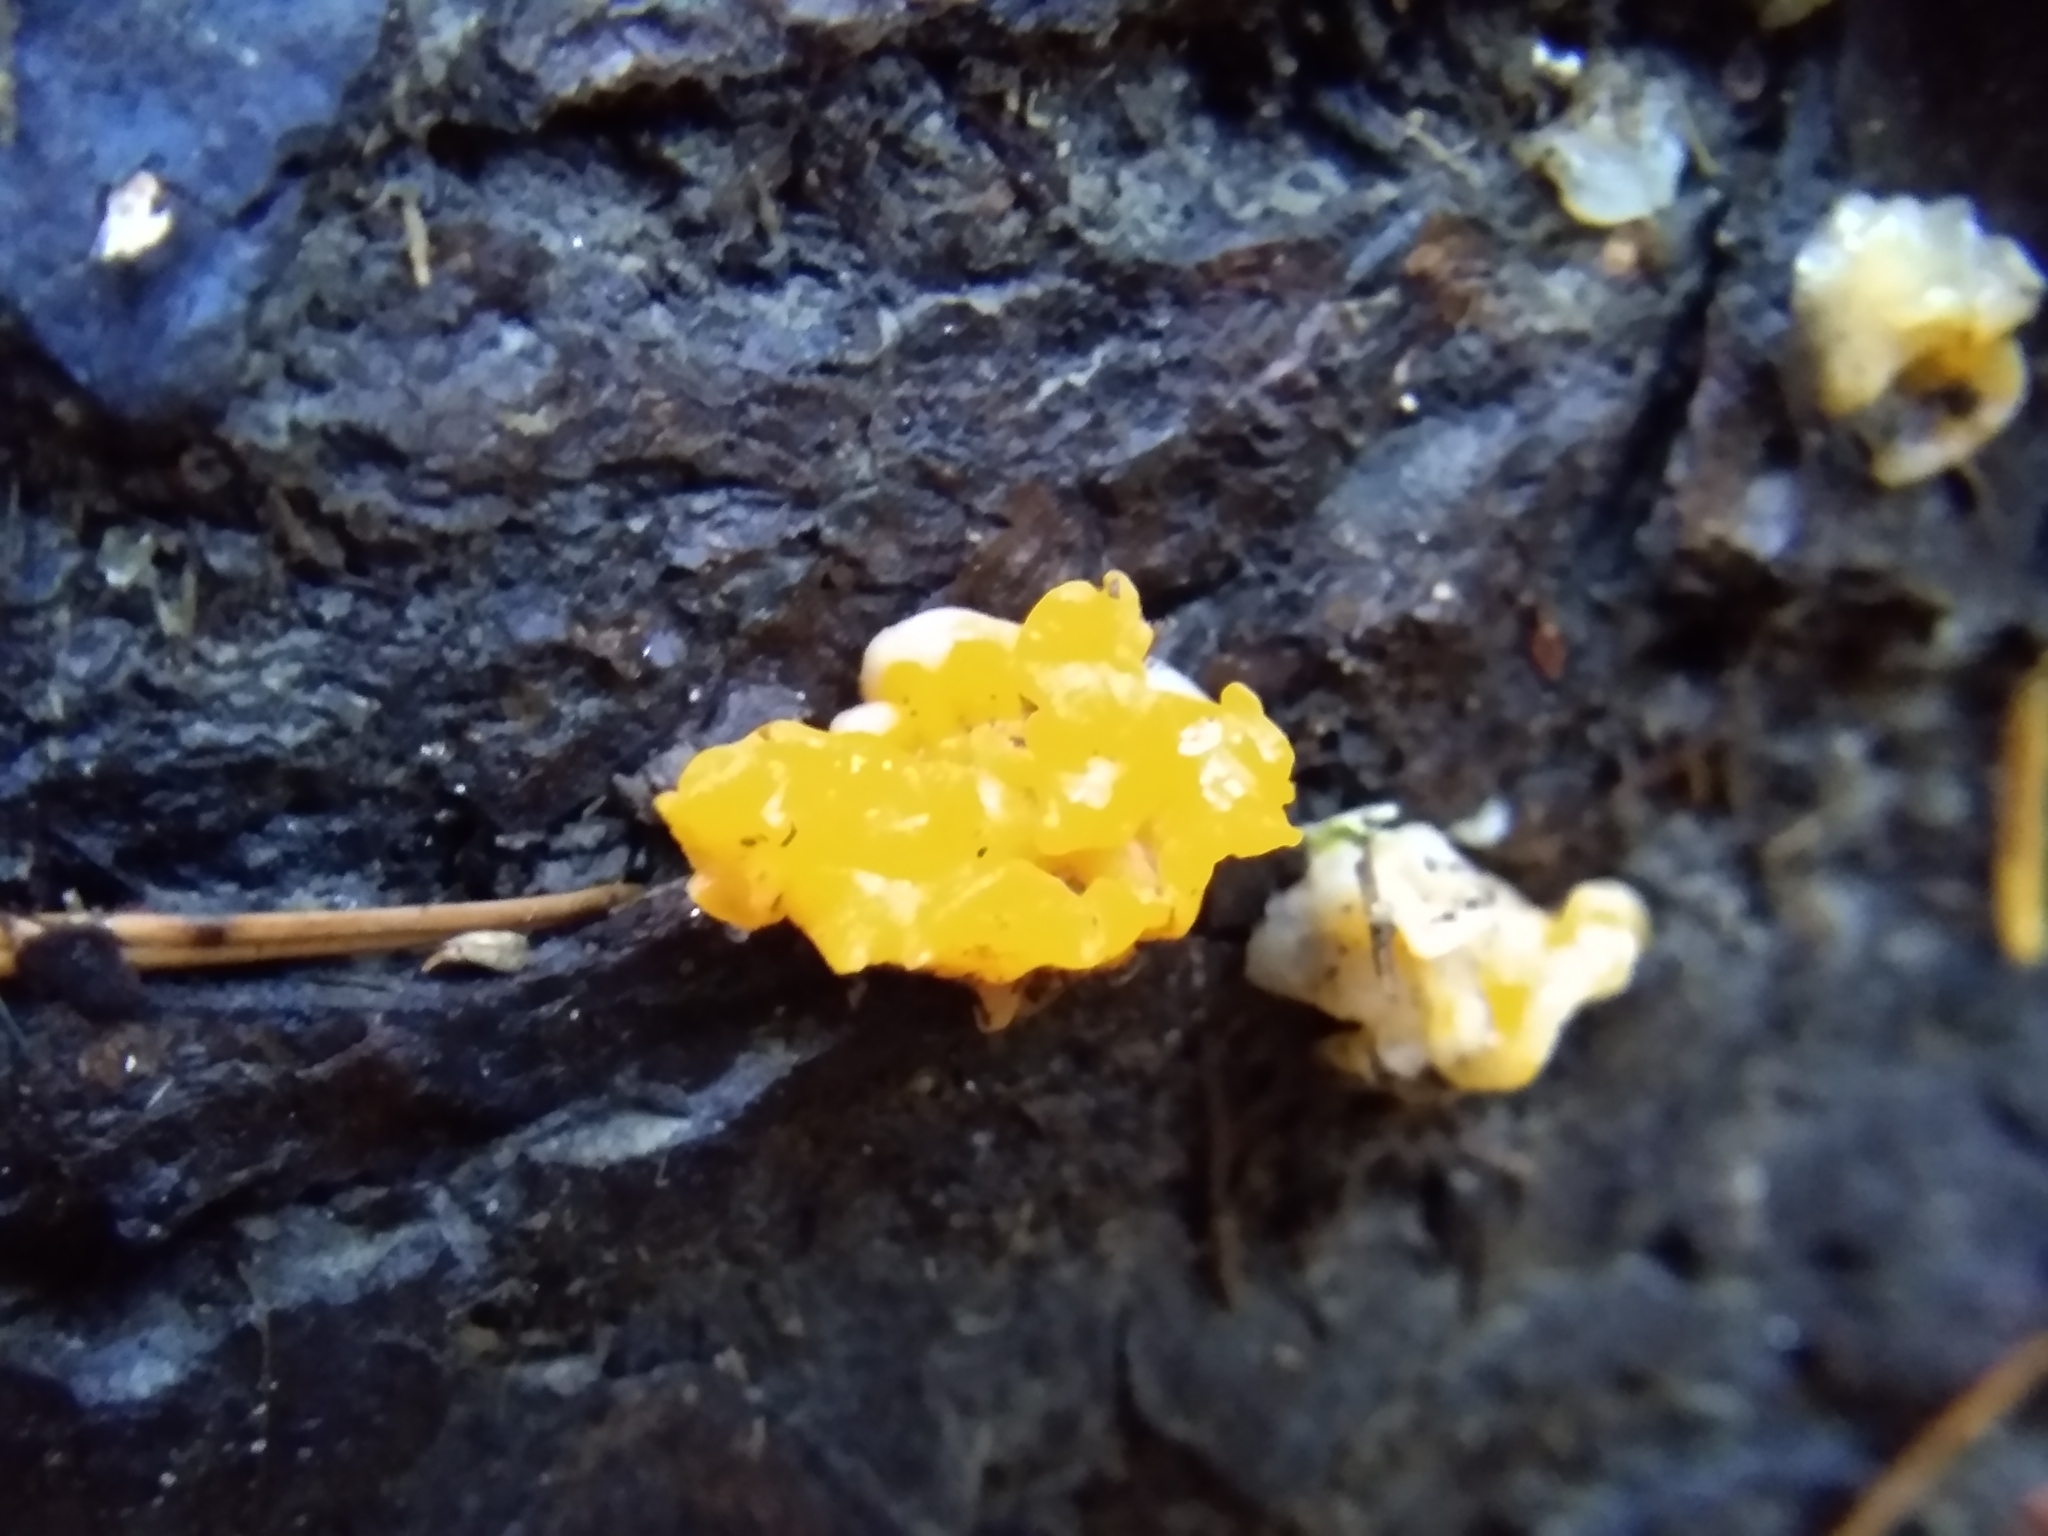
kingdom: Fungi
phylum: Basidiomycota
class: Dacrymycetes
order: Dacrymycetales
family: Dacrymycetaceae
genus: Dacrymyces
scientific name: Dacrymyces chrysospermus
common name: Orange jelly spot
